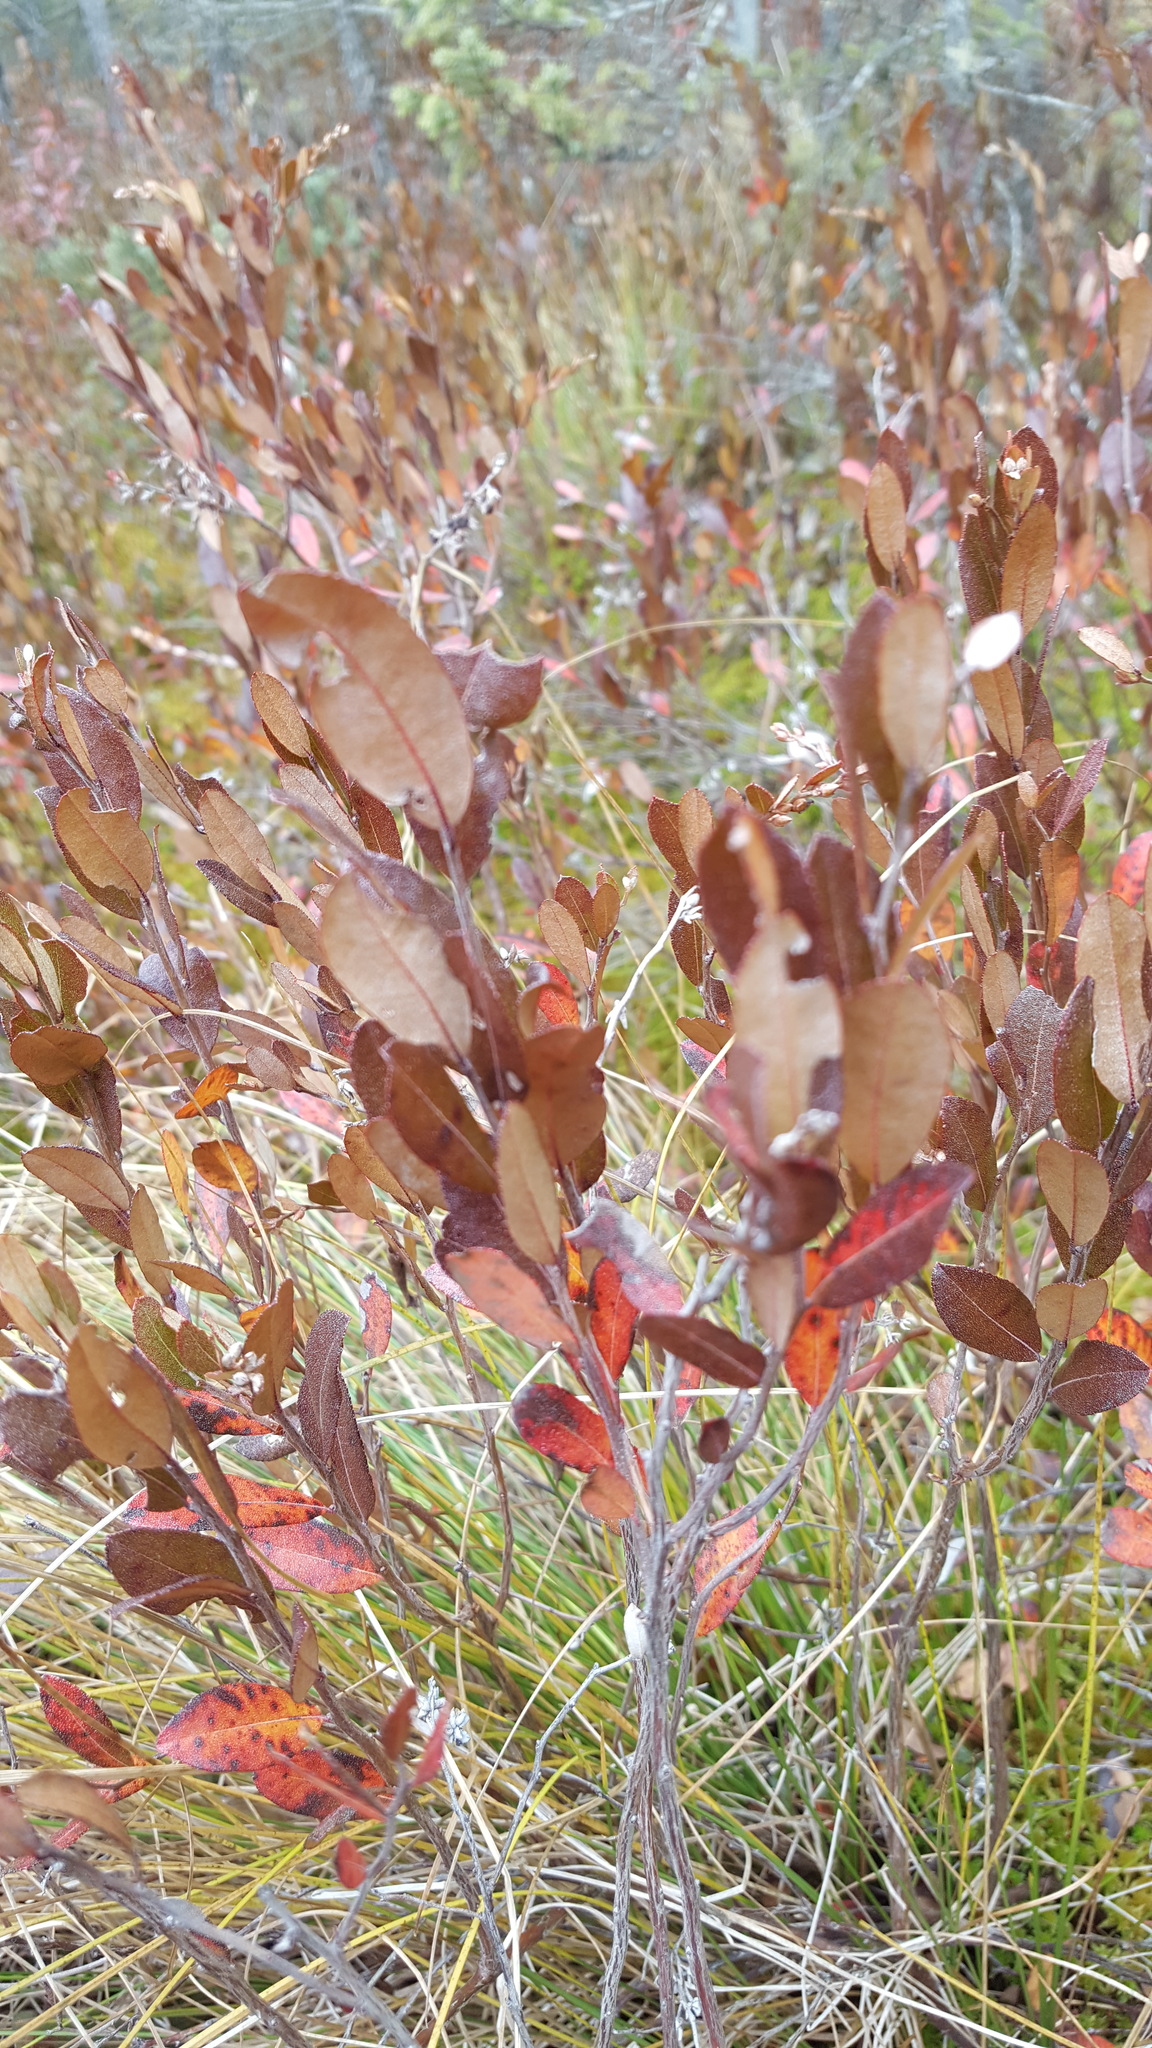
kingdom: Plantae
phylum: Tracheophyta
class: Magnoliopsida
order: Ericales
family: Ericaceae
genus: Chamaedaphne
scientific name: Chamaedaphne calyculata
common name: Leatherleaf
